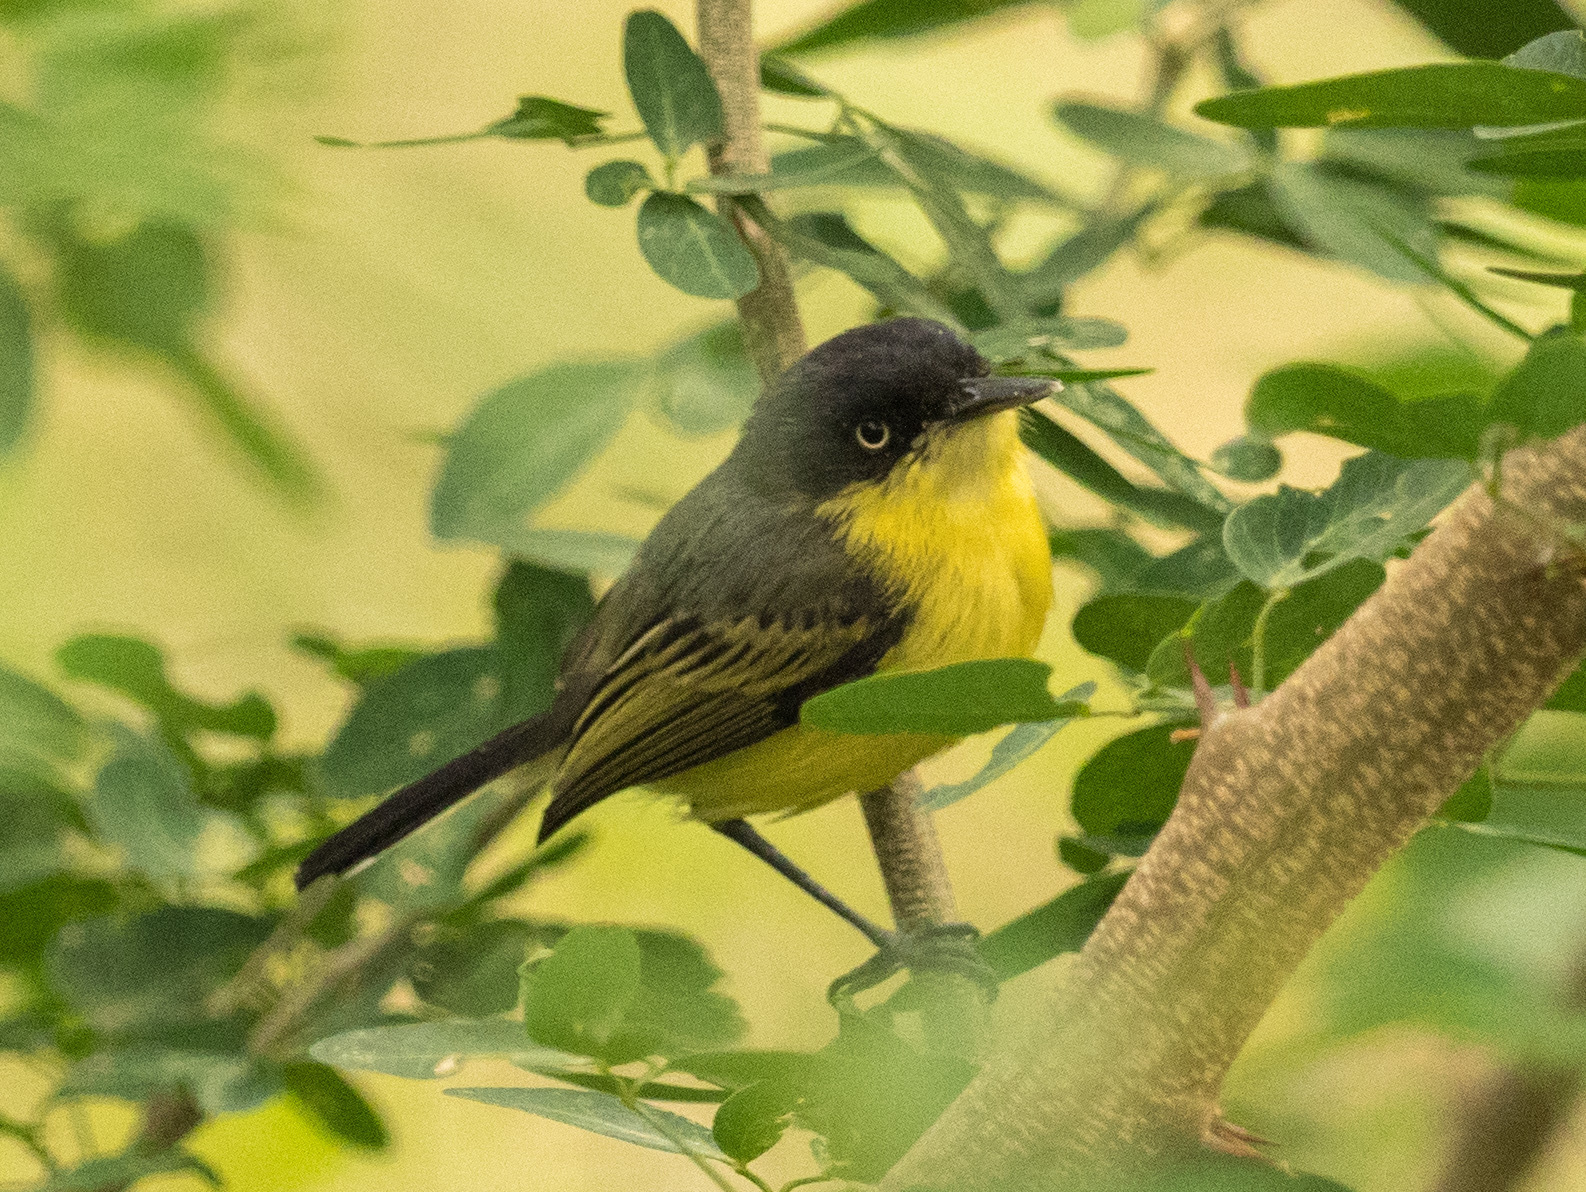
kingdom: Animalia
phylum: Chordata
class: Aves
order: Passeriformes
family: Tyrannidae
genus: Todirostrum
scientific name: Todirostrum cinereum
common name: Common tody-flycatcher
